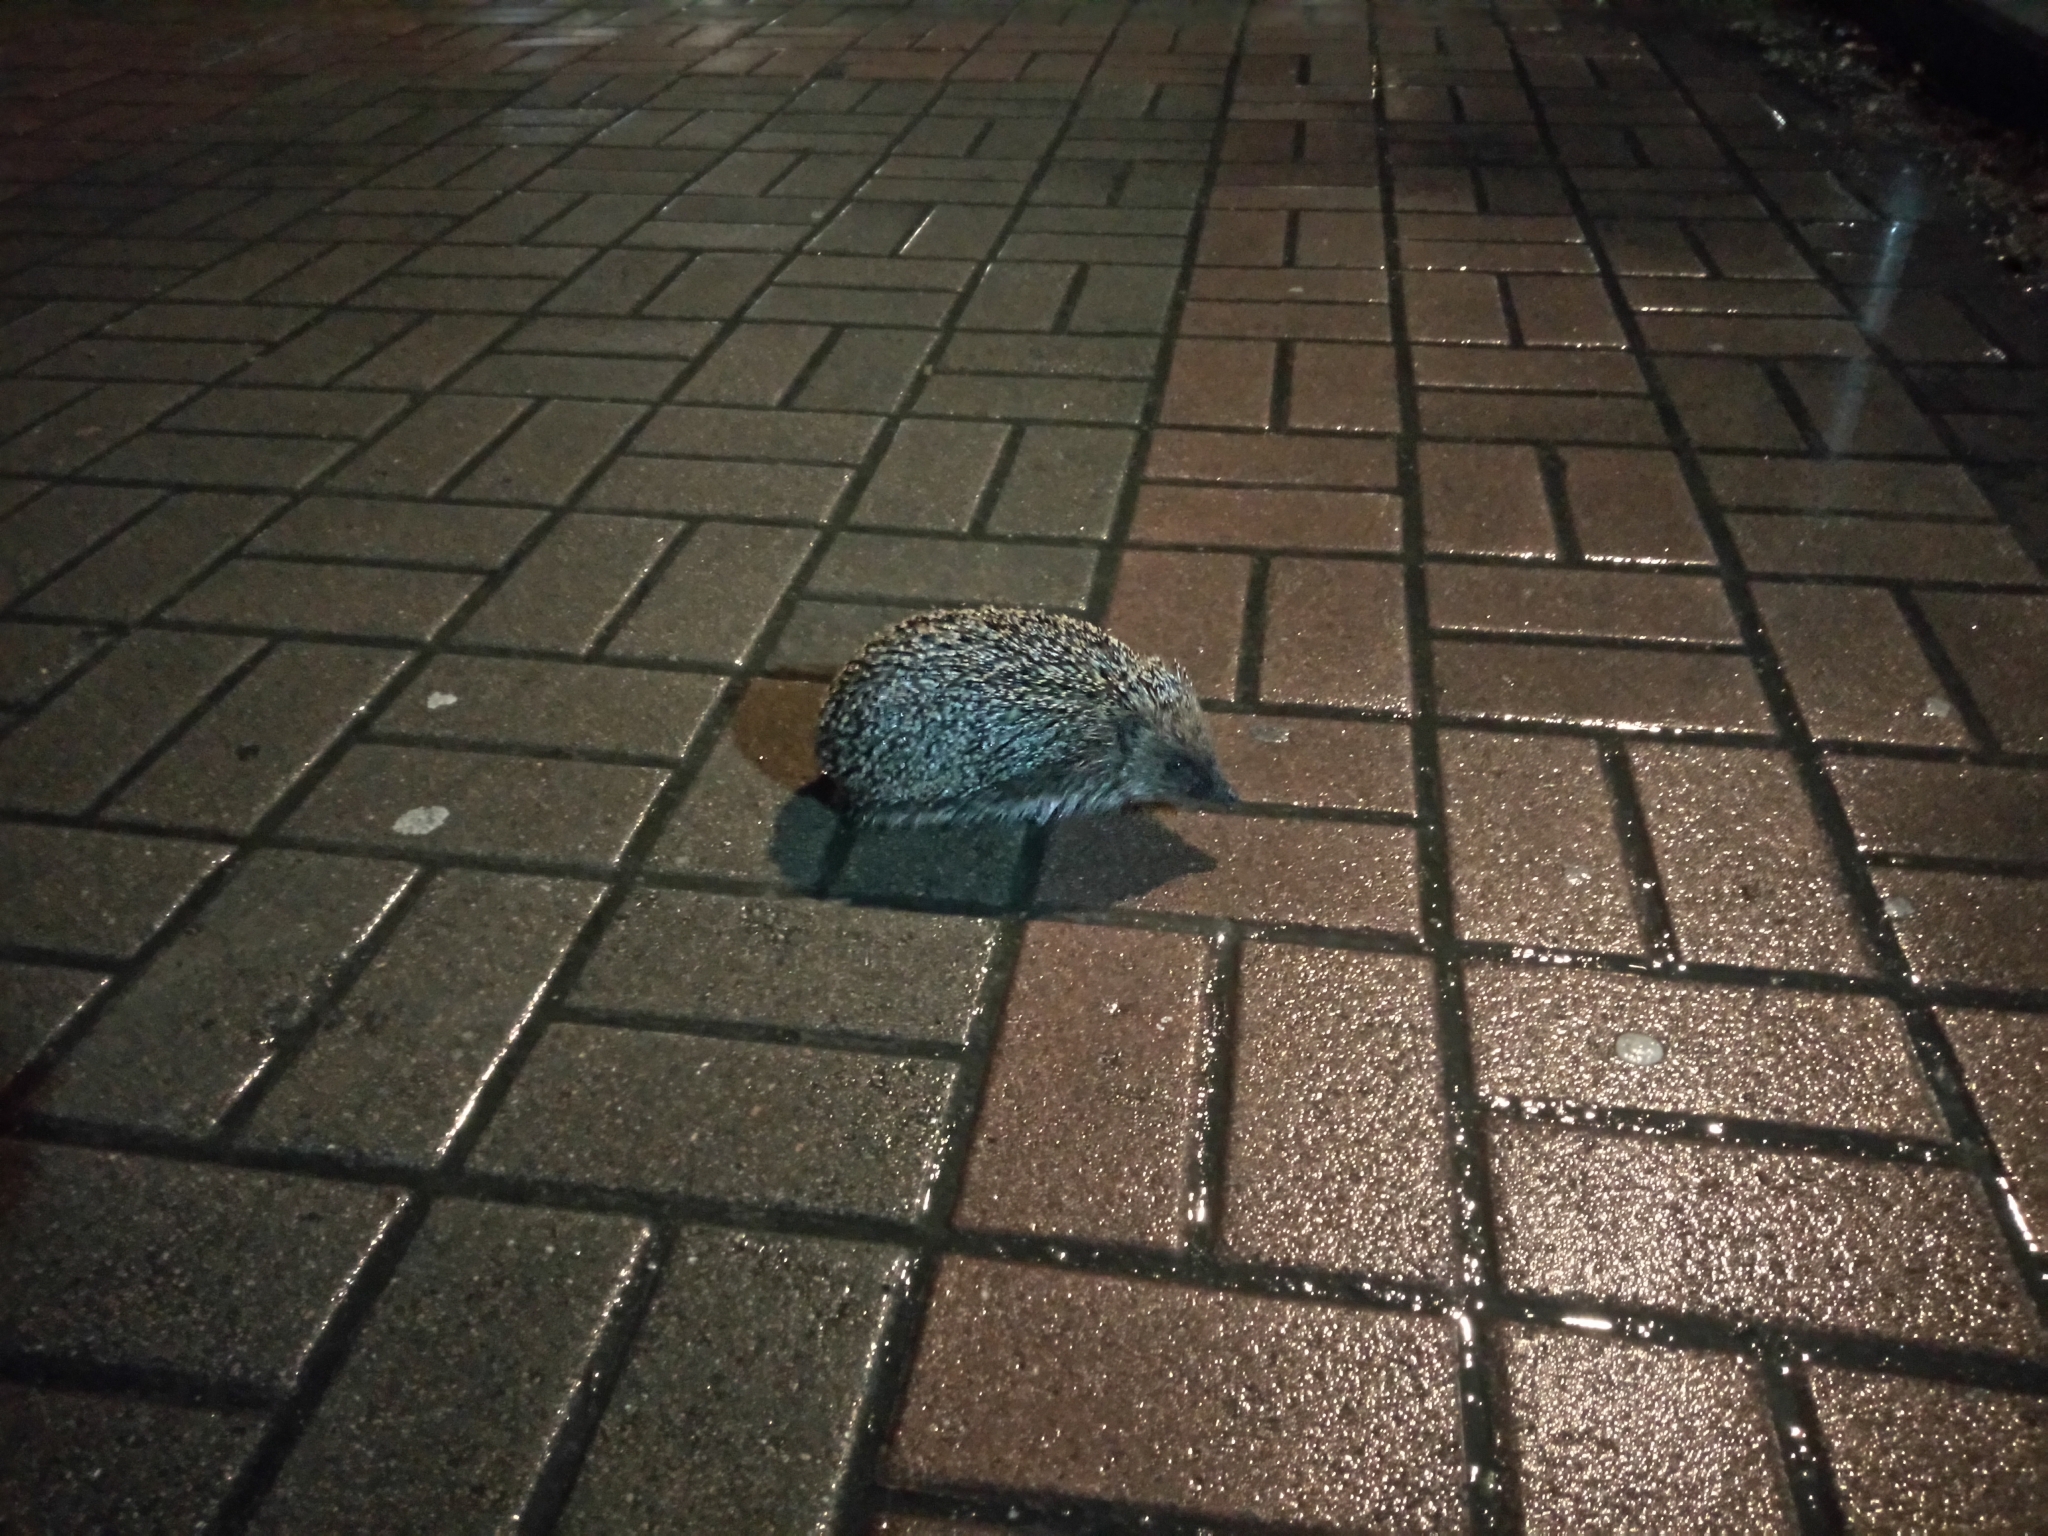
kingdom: Animalia
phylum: Chordata
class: Mammalia
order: Erinaceomorpha
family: Erinaceidae
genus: Erinaceus
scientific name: Erinaceus roumanicus
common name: Northern white-breasted hedgehog
